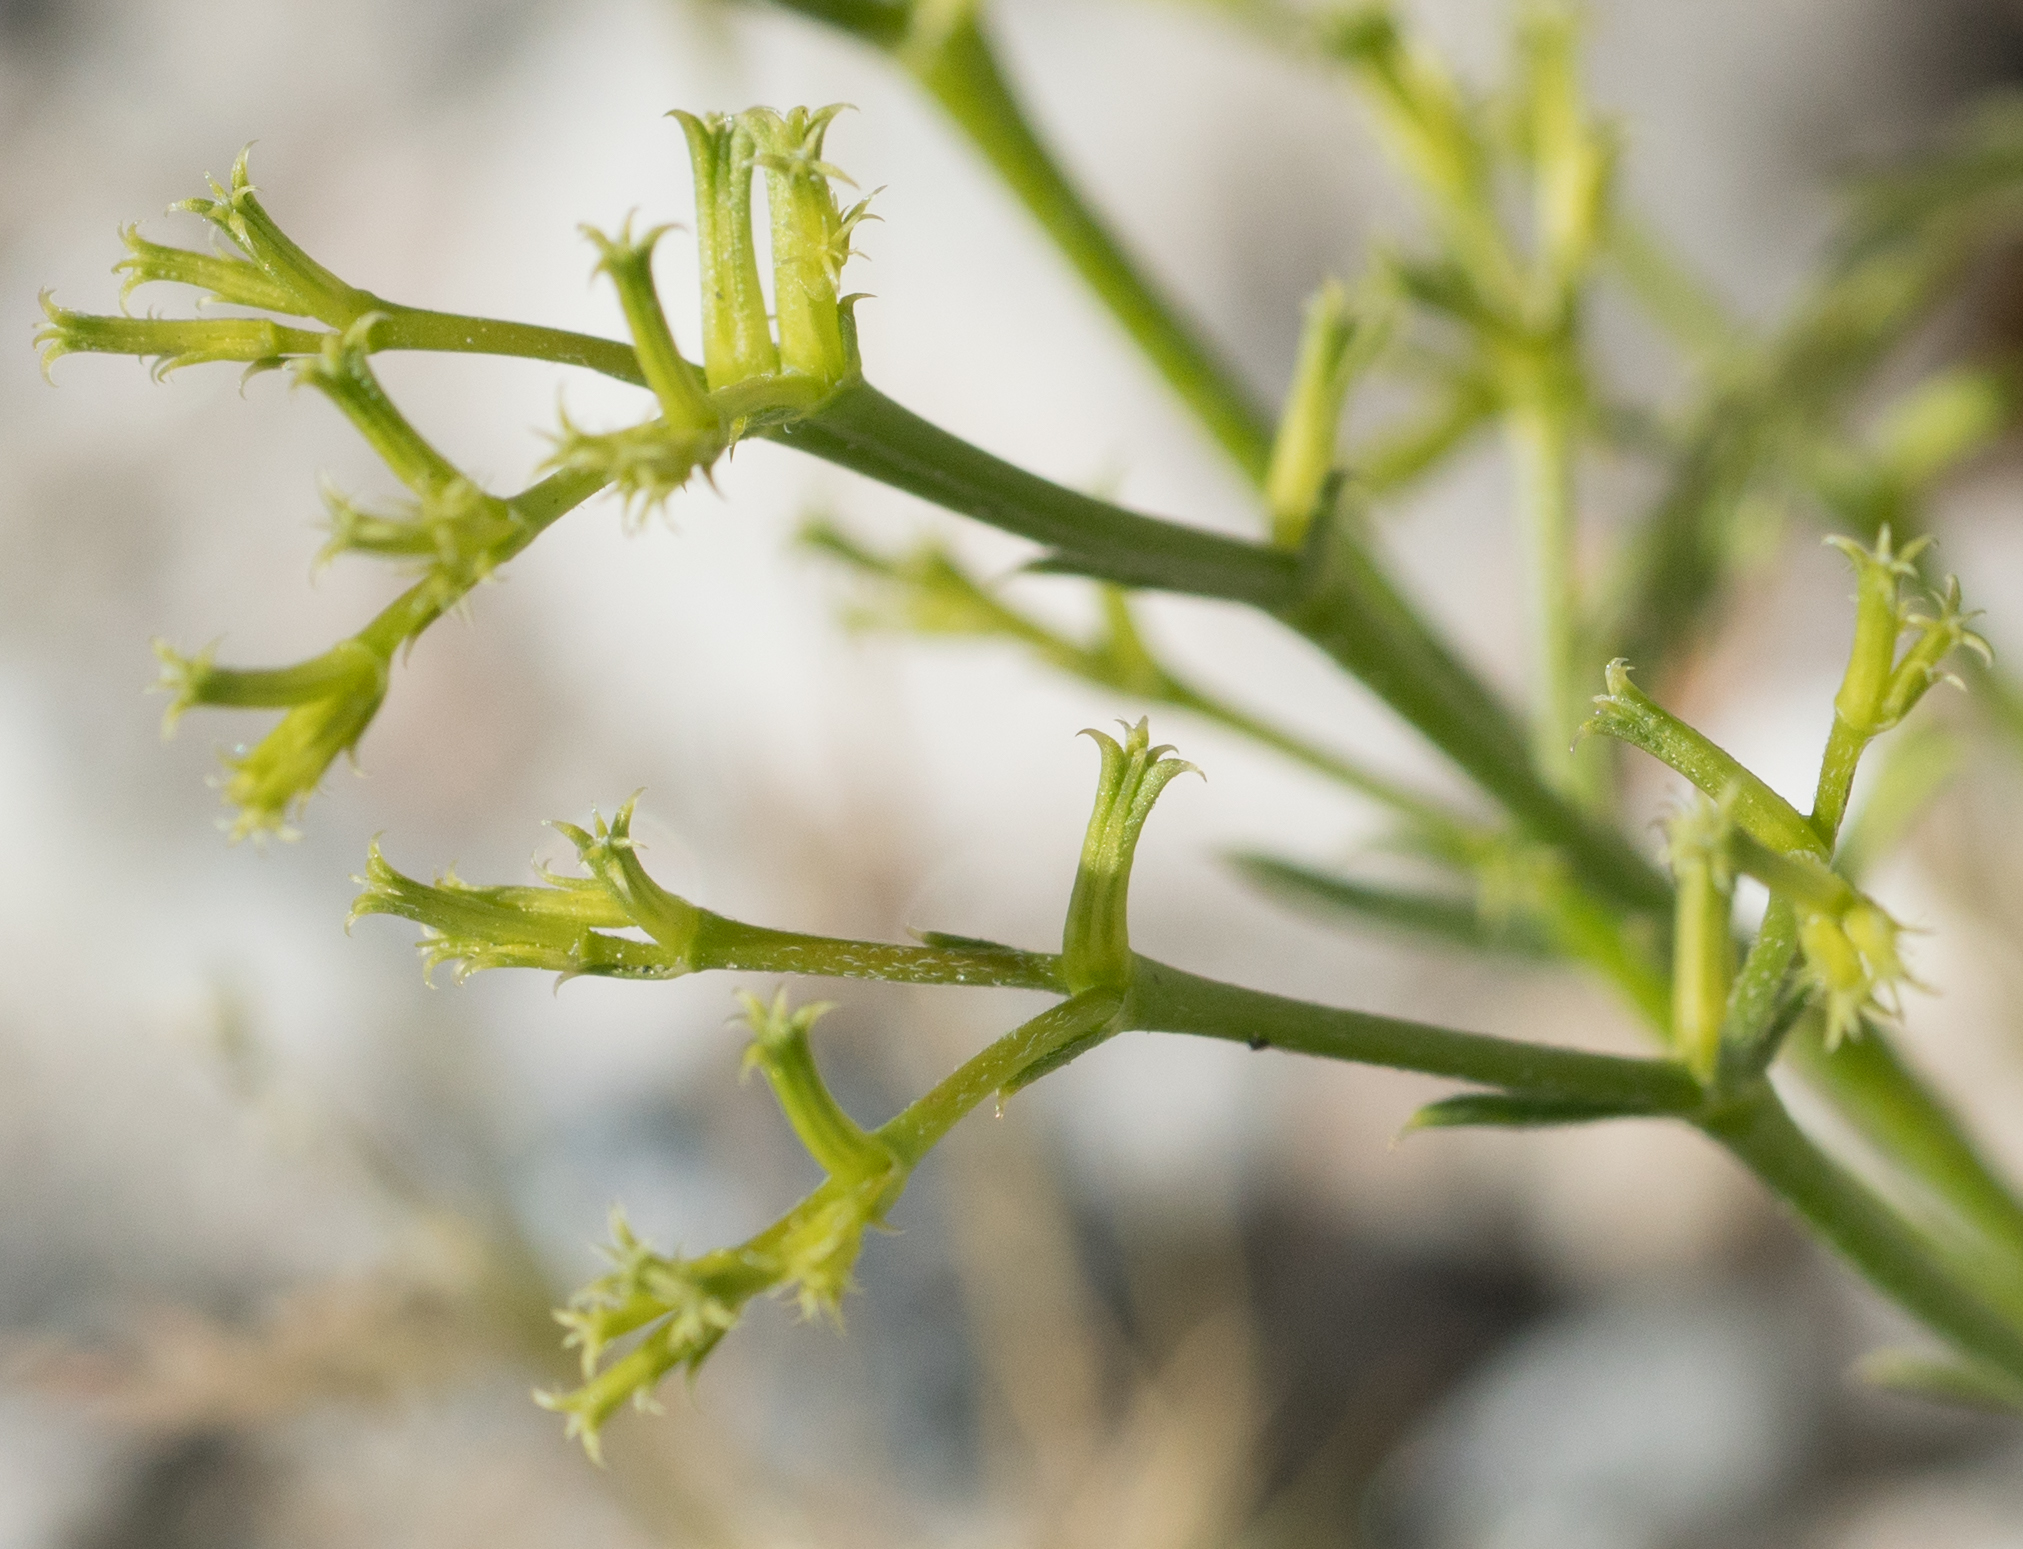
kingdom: Plantae
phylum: Tracheophyta
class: Magnoliopsida
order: Caryophyllales
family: Polygonaceae
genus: Chorizanthe
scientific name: Chorizanthe brevicornu
